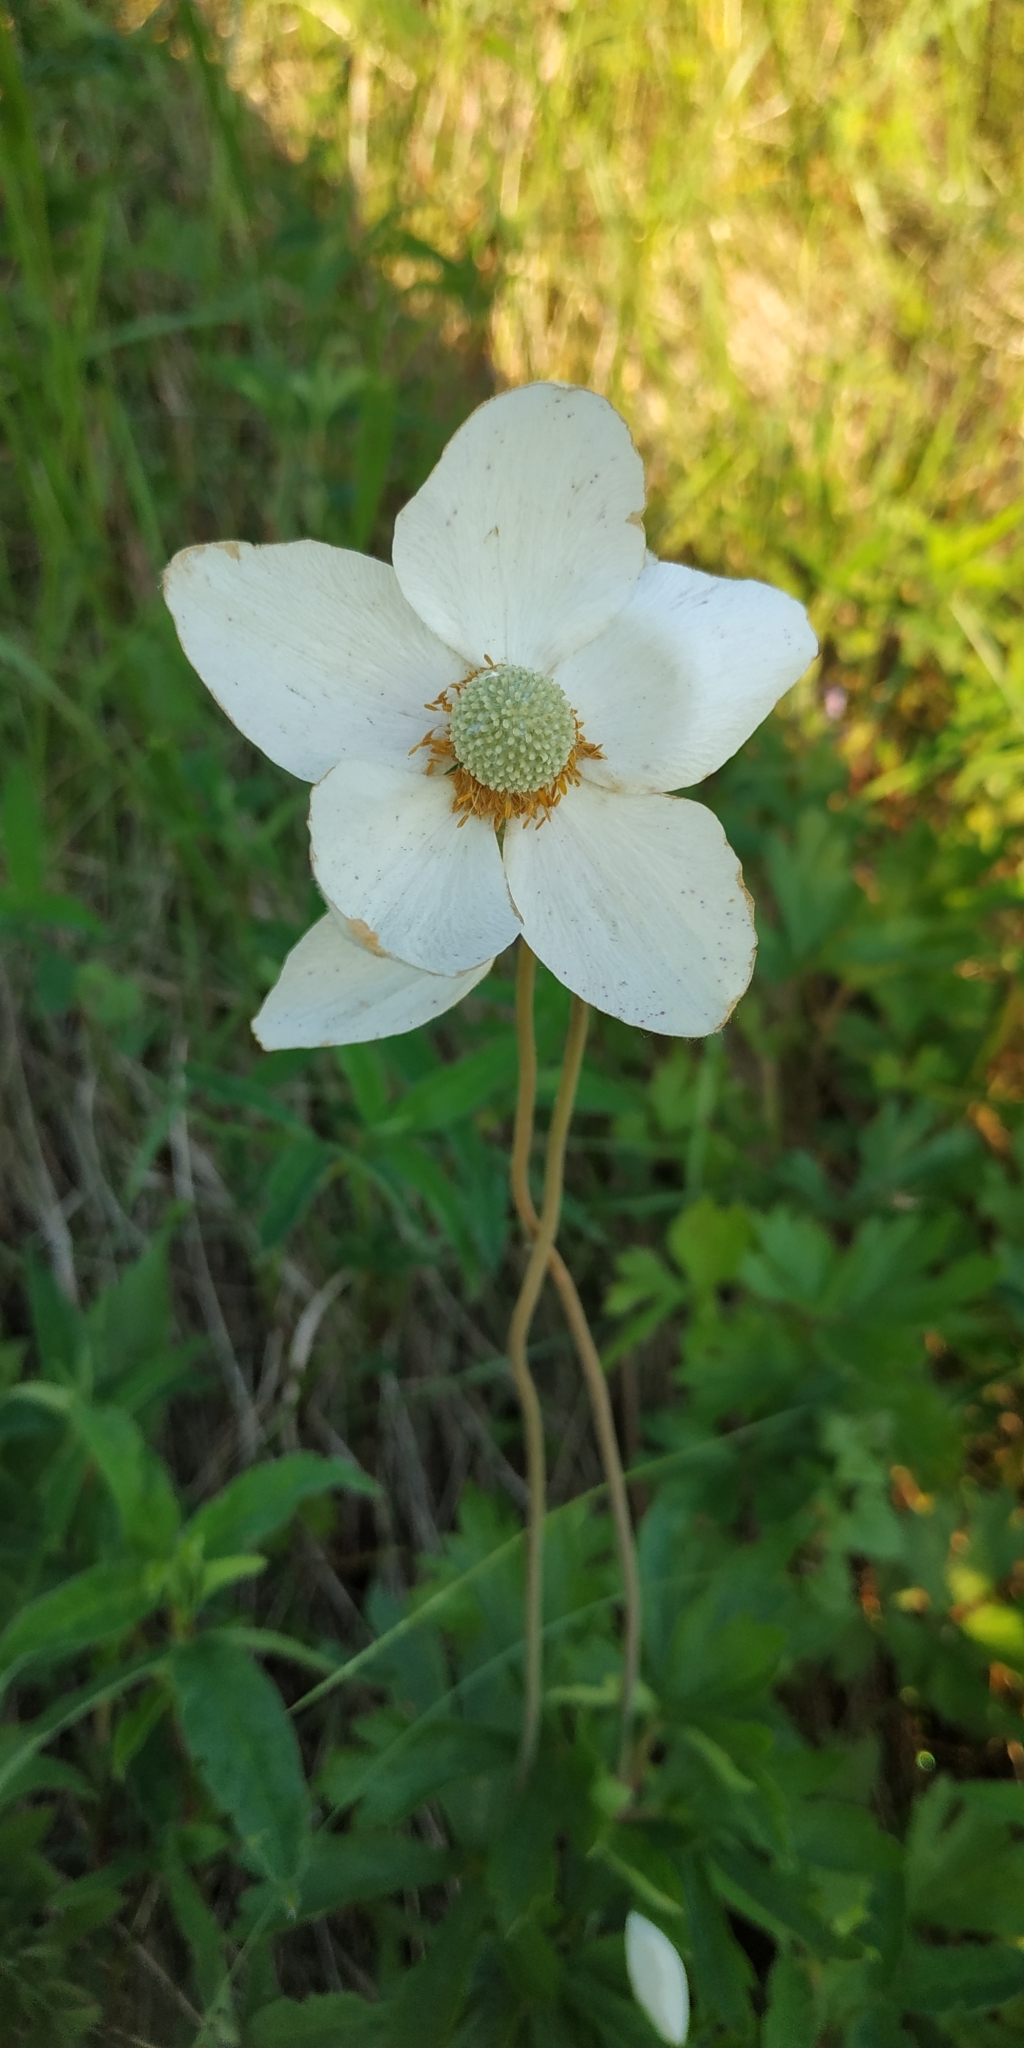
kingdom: Plantae
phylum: Tracheophyta
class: Magnoliopsida
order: Ranunculales
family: Ranunculaceae
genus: Anemone
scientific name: Anemone sylvestris
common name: Snowdrop anemone
